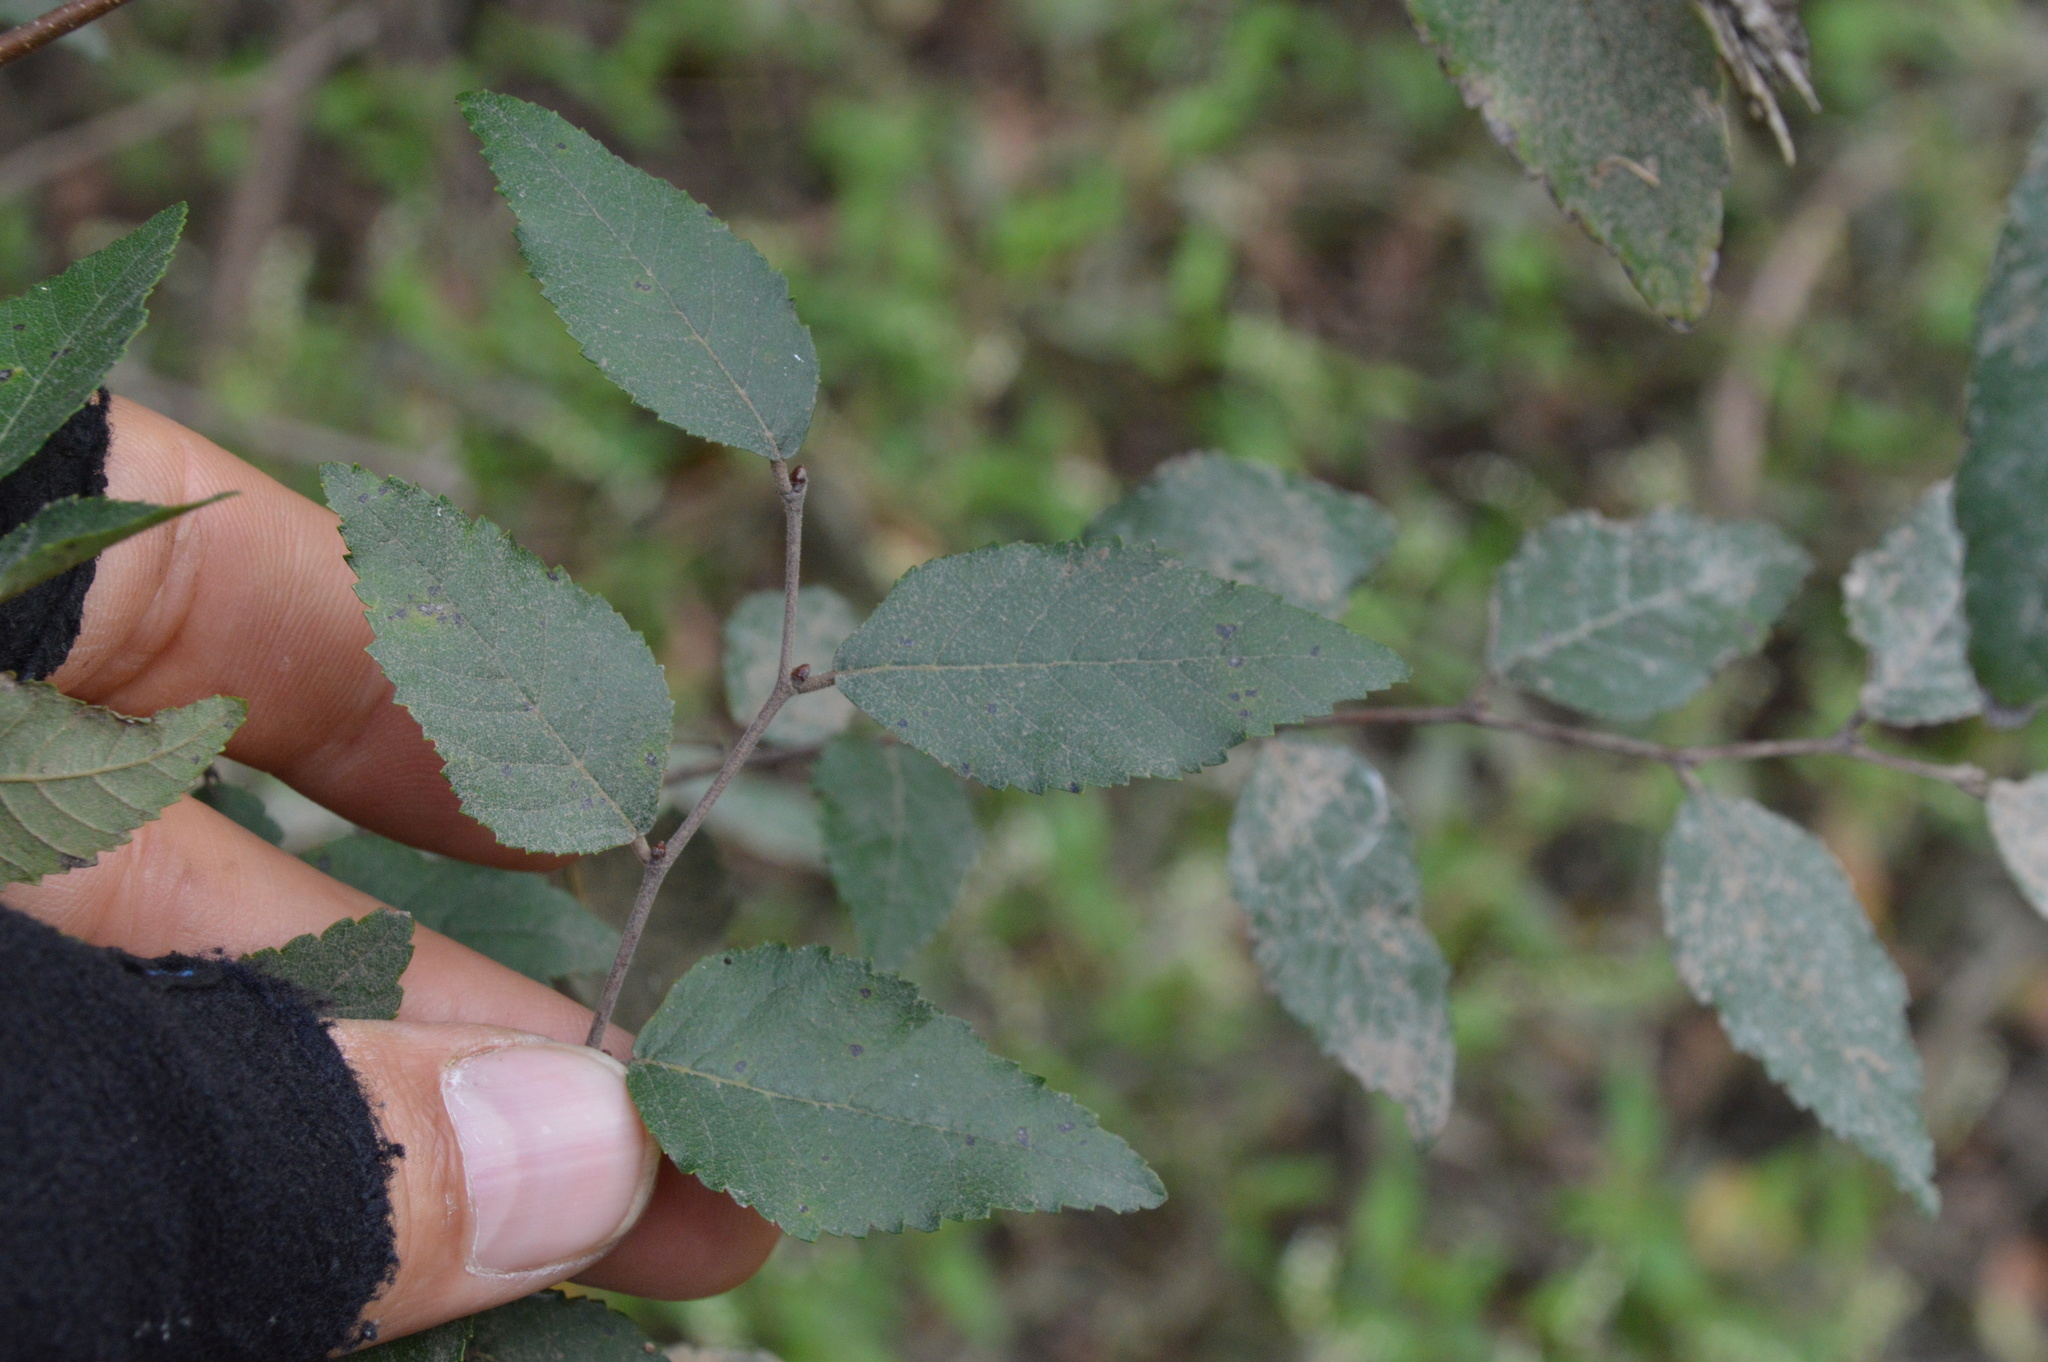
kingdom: Plantae
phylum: Tracheophyta
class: Magnoliopsida
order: Rosales
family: Ulmaceae
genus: Planera
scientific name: Planera aquatica
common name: Water-elm
